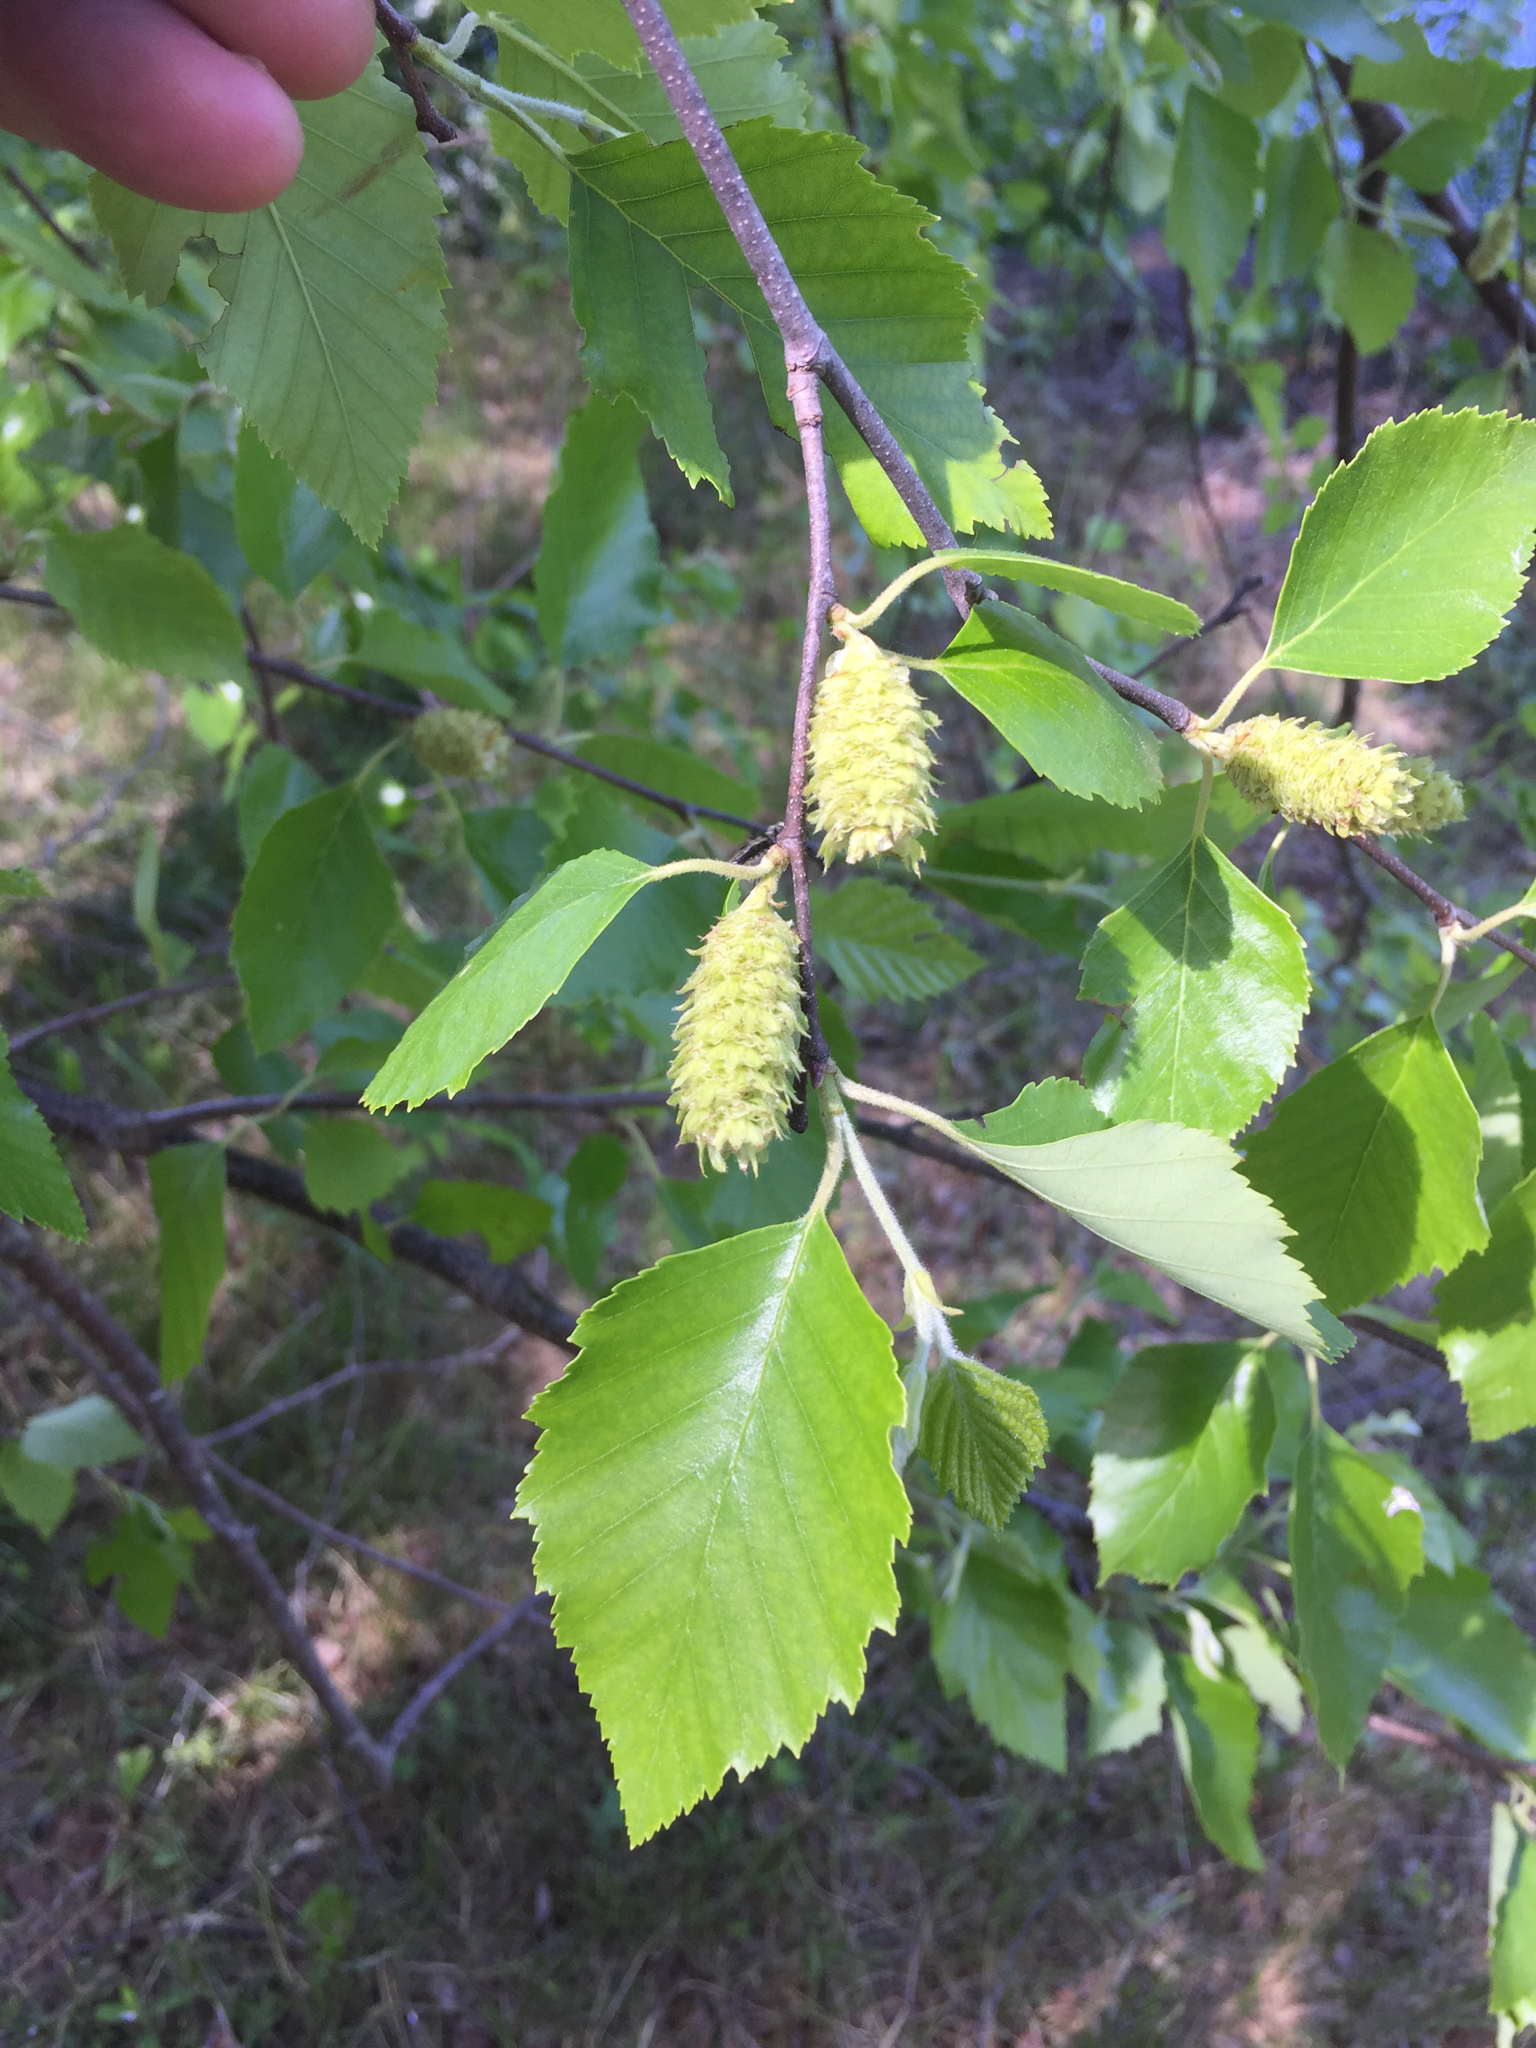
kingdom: Plantae
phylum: Tracheophyta
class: Magnoliopsida
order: Fagales
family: Betulaceae
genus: Betula
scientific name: Betula nigra
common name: Black birch
